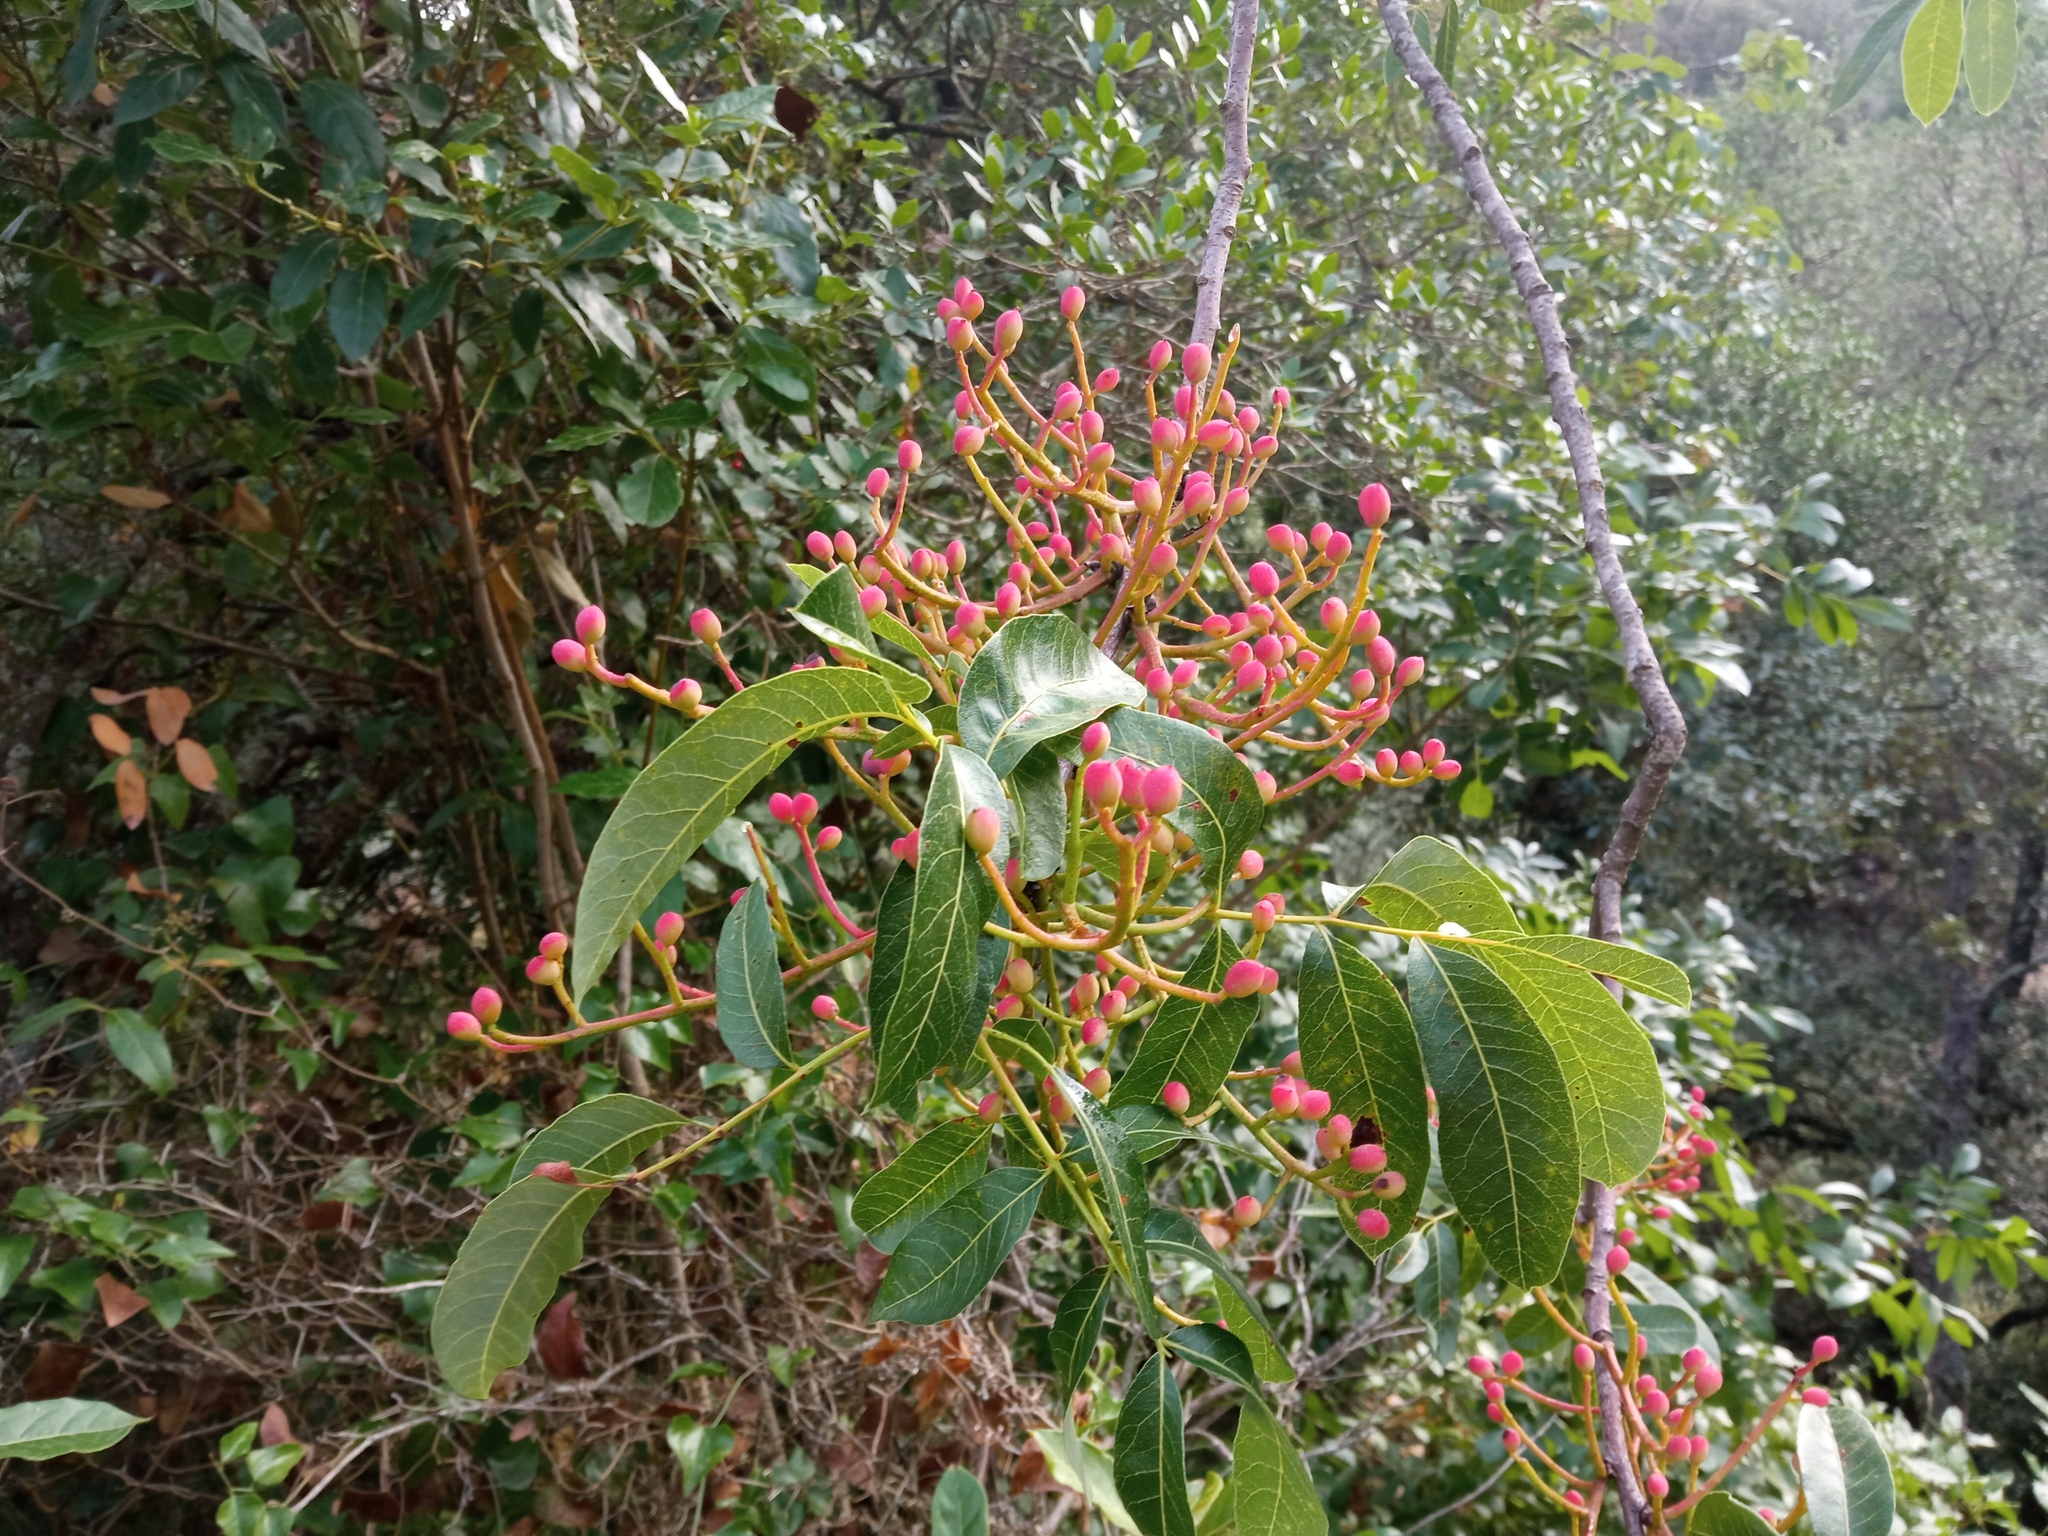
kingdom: Plantae
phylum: Tracheophyta
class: Magnoliopsida
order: Sapindales
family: Anacardiaceae
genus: Pistacia
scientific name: Pistacia terebinthus
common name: Terebinth
